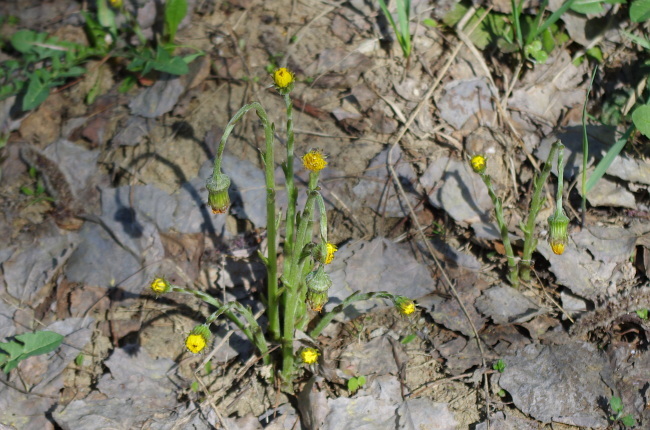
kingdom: Plantae
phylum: Tracheophyta
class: Magnoliopsida
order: Asterales
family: Asteraceae
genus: Tussilago
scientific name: Tussilago farfara
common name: Coltsfoot
